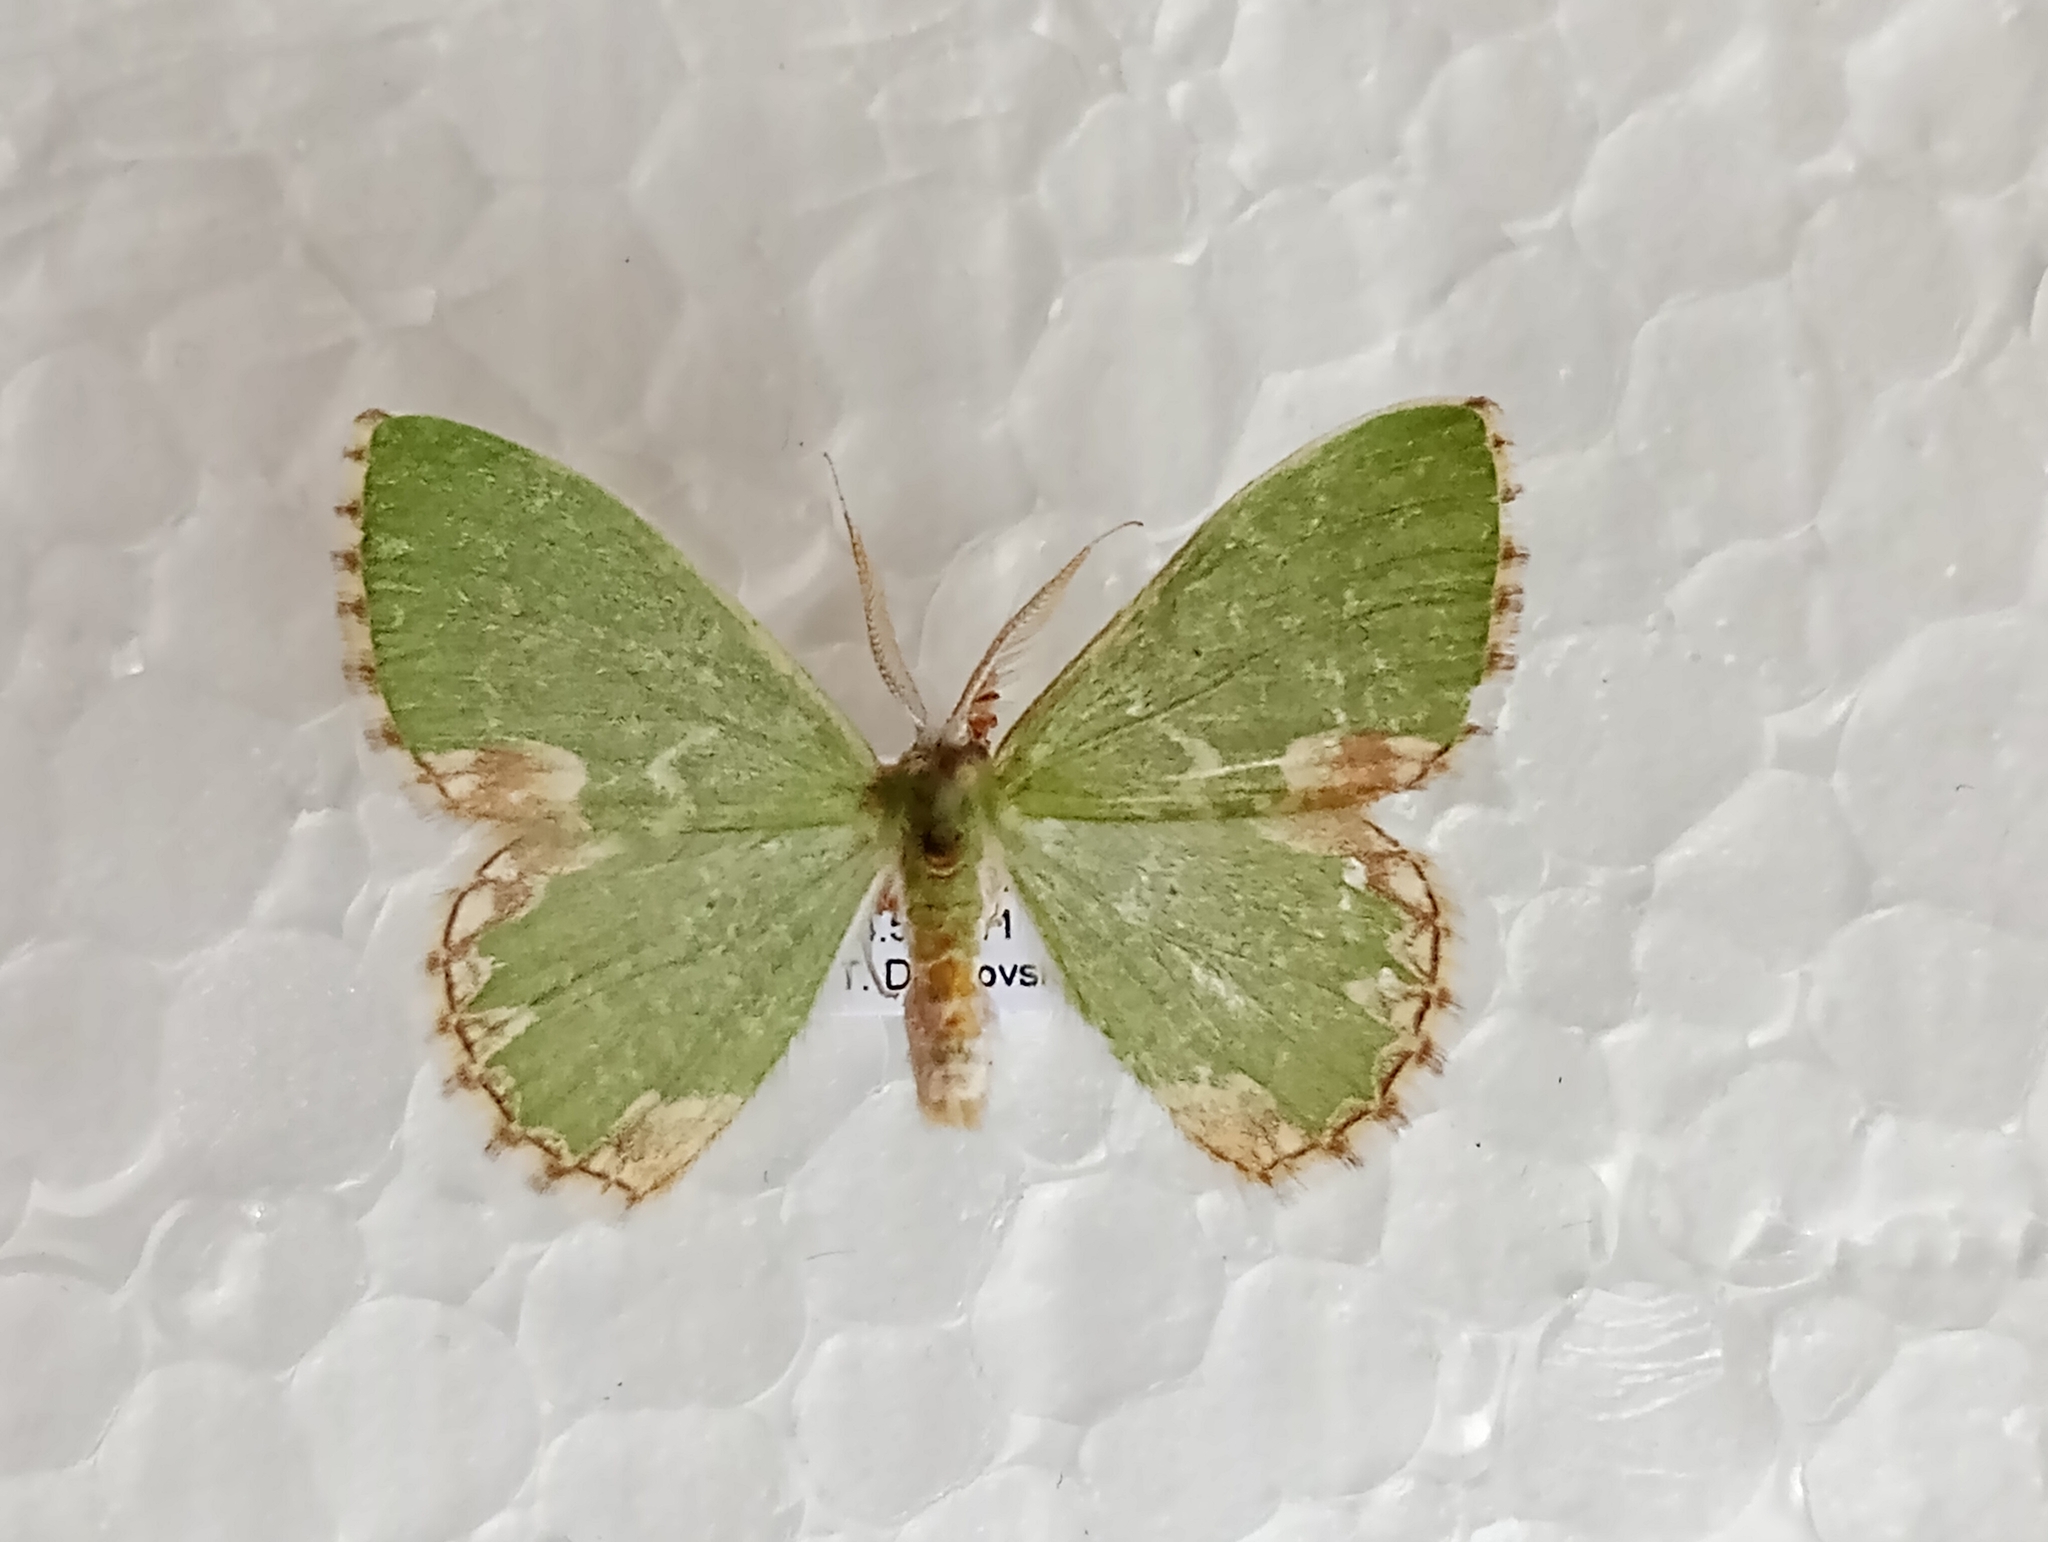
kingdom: Animalia
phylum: Arthropoda
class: Insecta
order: Lepidoptera
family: Geometridae
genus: Comibaena
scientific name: Comibaena bajularia
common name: Blotched emerald
